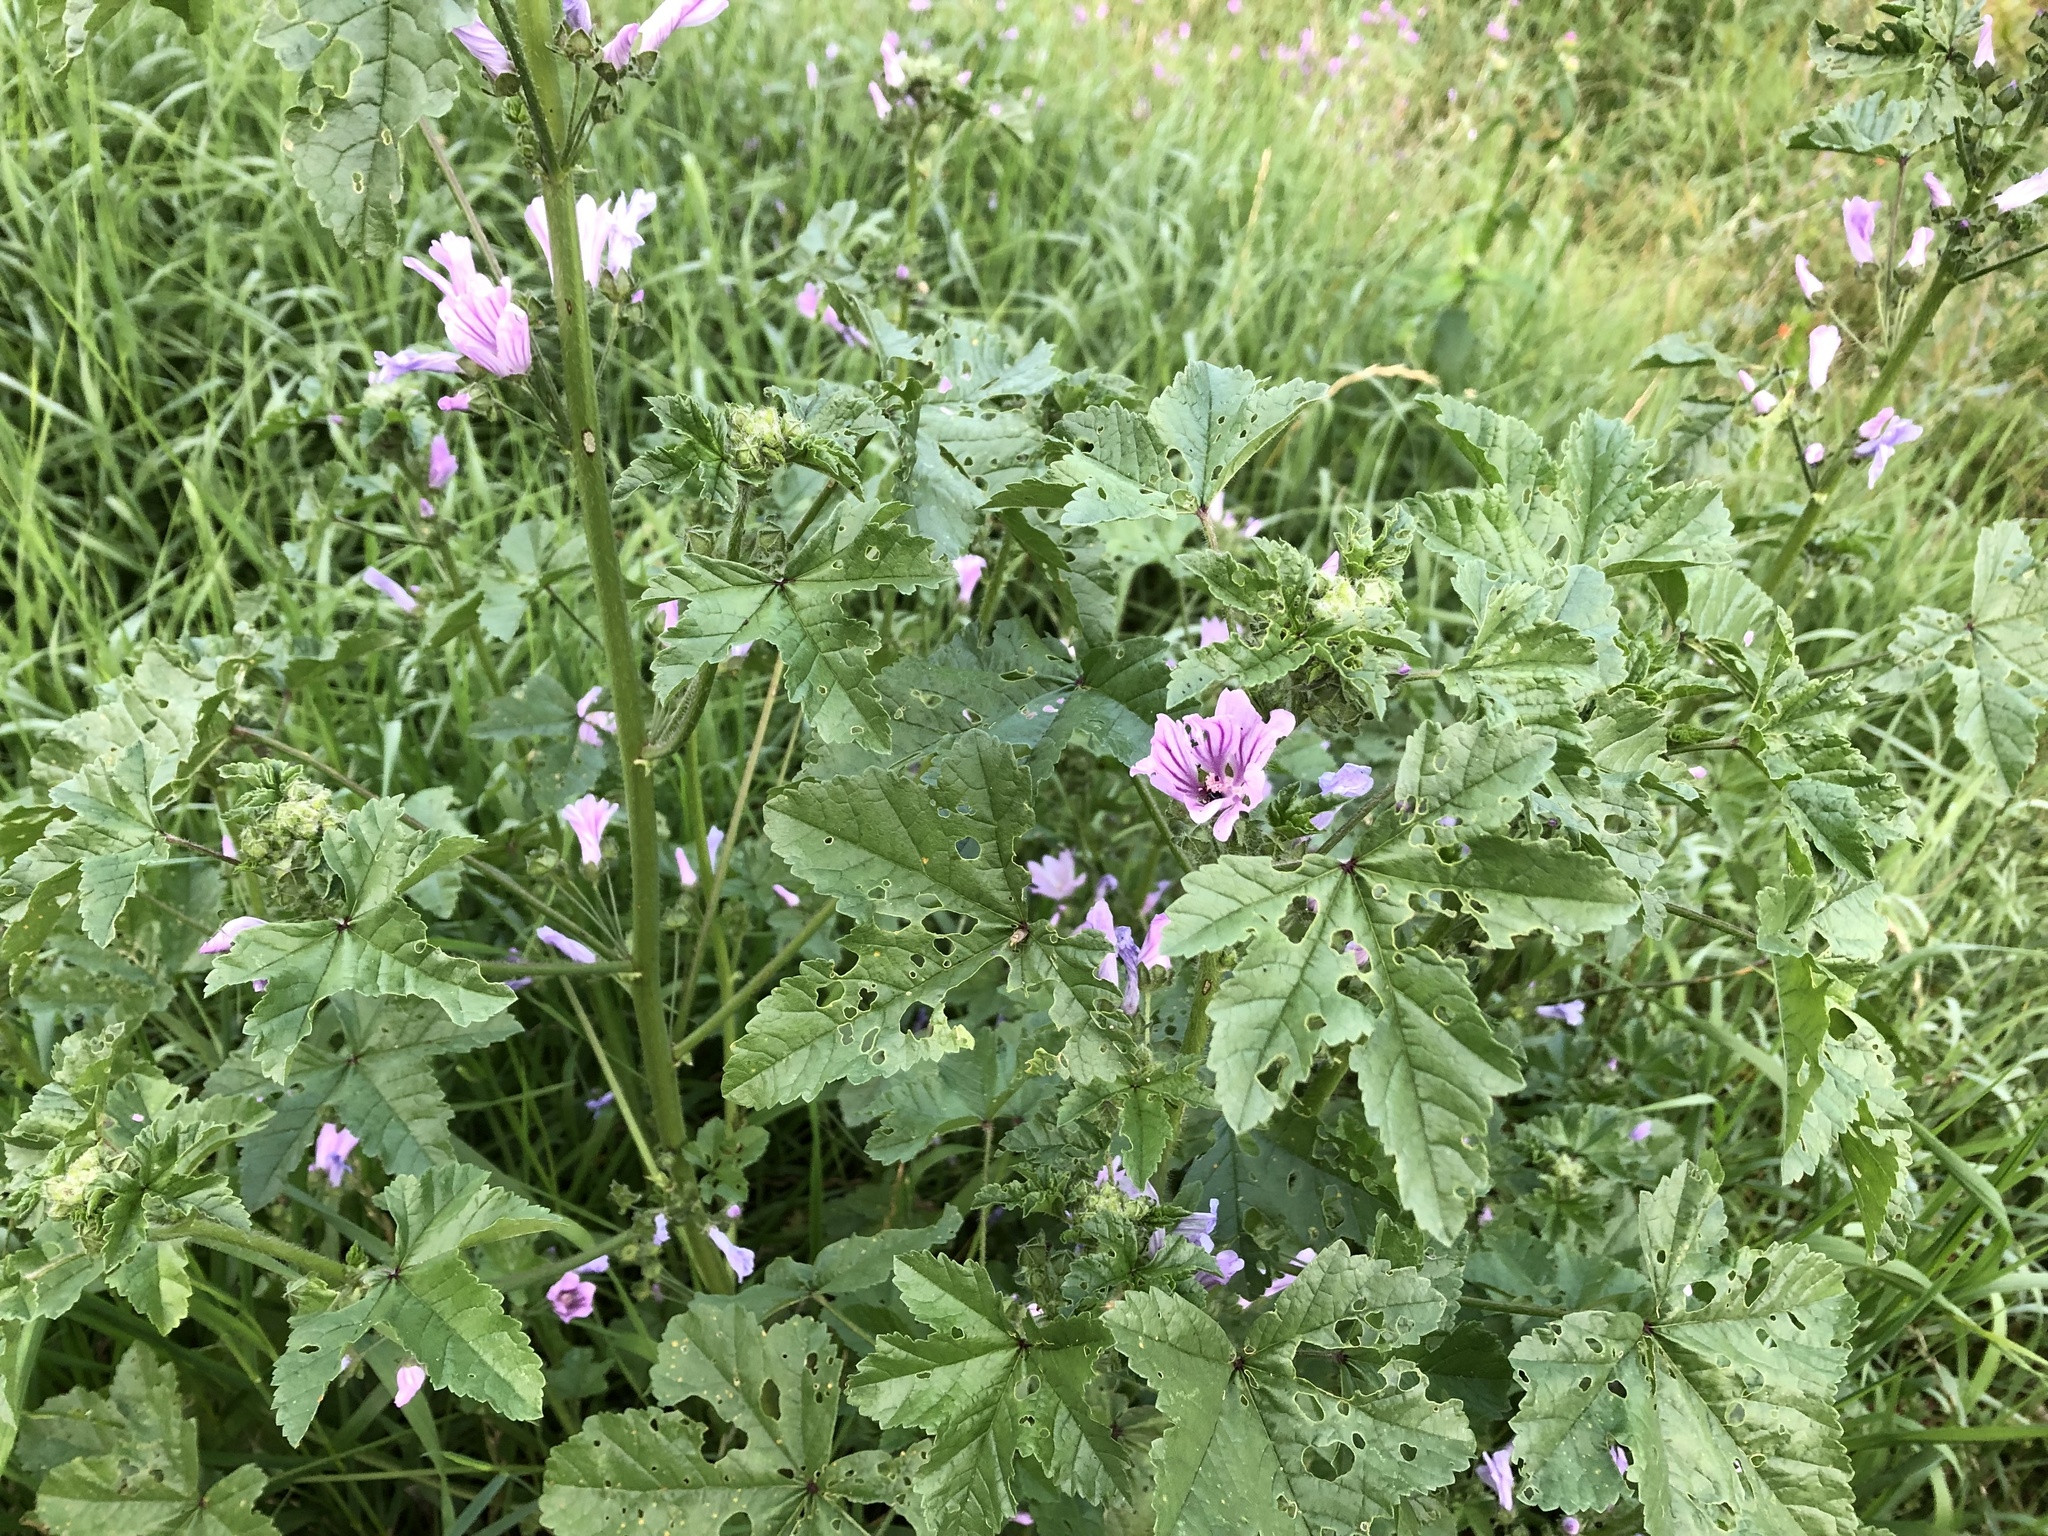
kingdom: Plantae
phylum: Tracheophyta
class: Magnoliopsida
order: Malvales
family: Malvaceae
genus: Malva
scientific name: Malva sylvestris
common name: Common mallow
